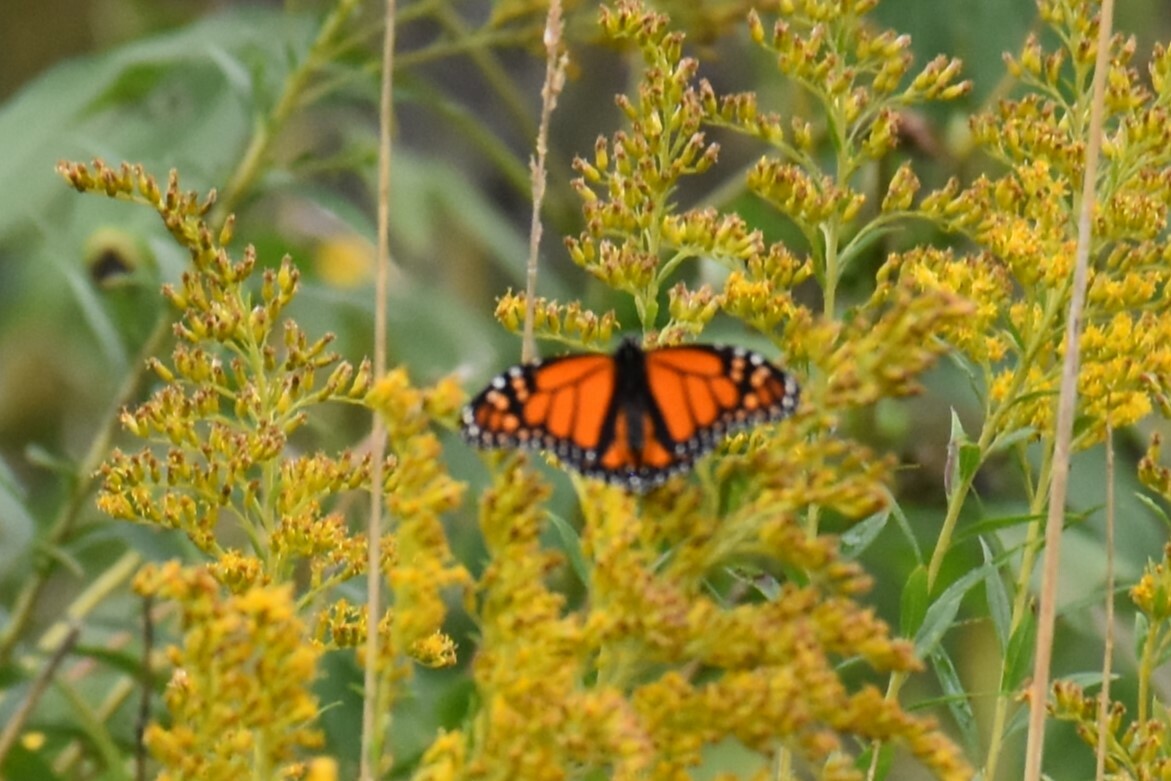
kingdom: Animalia
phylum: Arthropoda
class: Insecta
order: Lepidoptera
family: Nymphalidae
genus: Danaus
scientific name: Danaus plexippus
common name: Monarch
